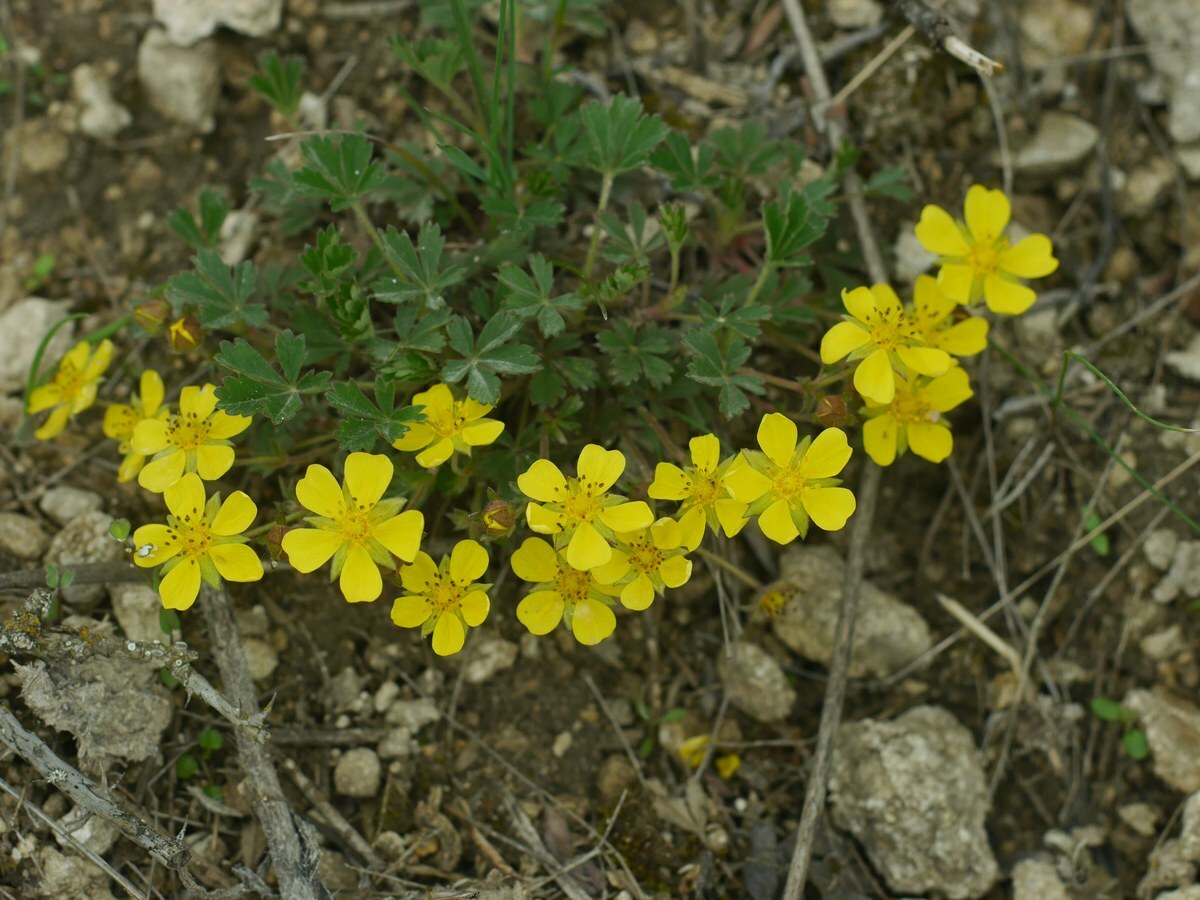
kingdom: Plantae
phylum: Tracheophyta
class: Magnoliopsida
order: Rosales
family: Rosaceae
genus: Potentilla
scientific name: Potentilla incana
